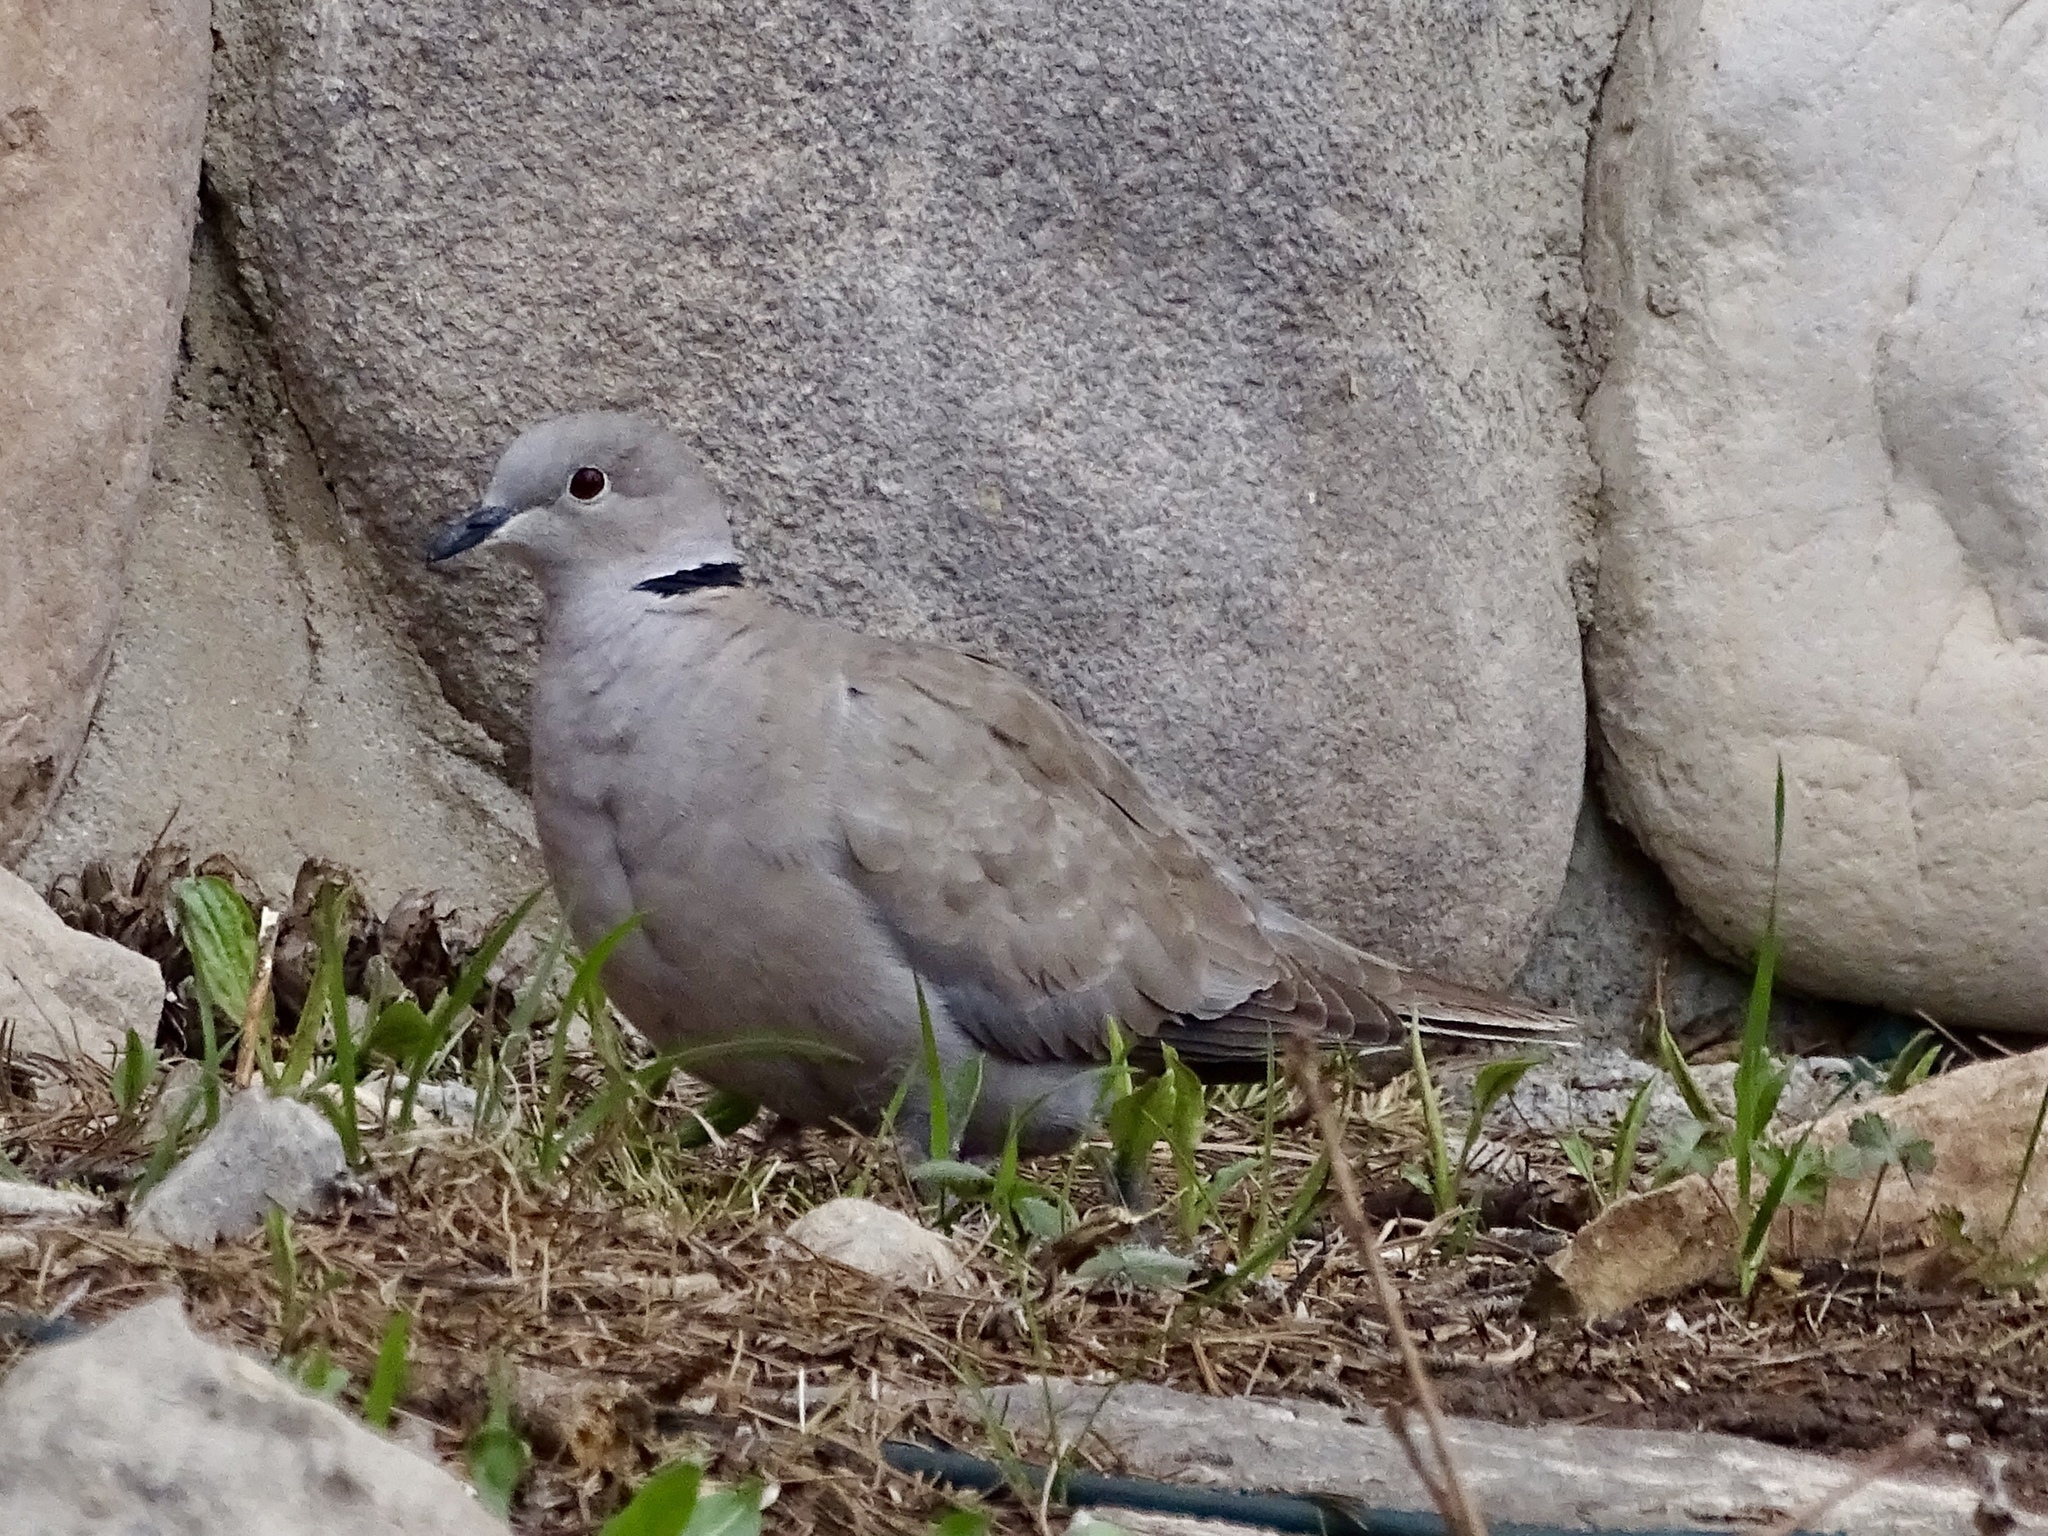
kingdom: Animalia
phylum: Chordata
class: Aves
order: Columbiformes
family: Columbidae
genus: Streptopelia
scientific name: Streptopelia decaocto
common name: Eurasian collared dove
